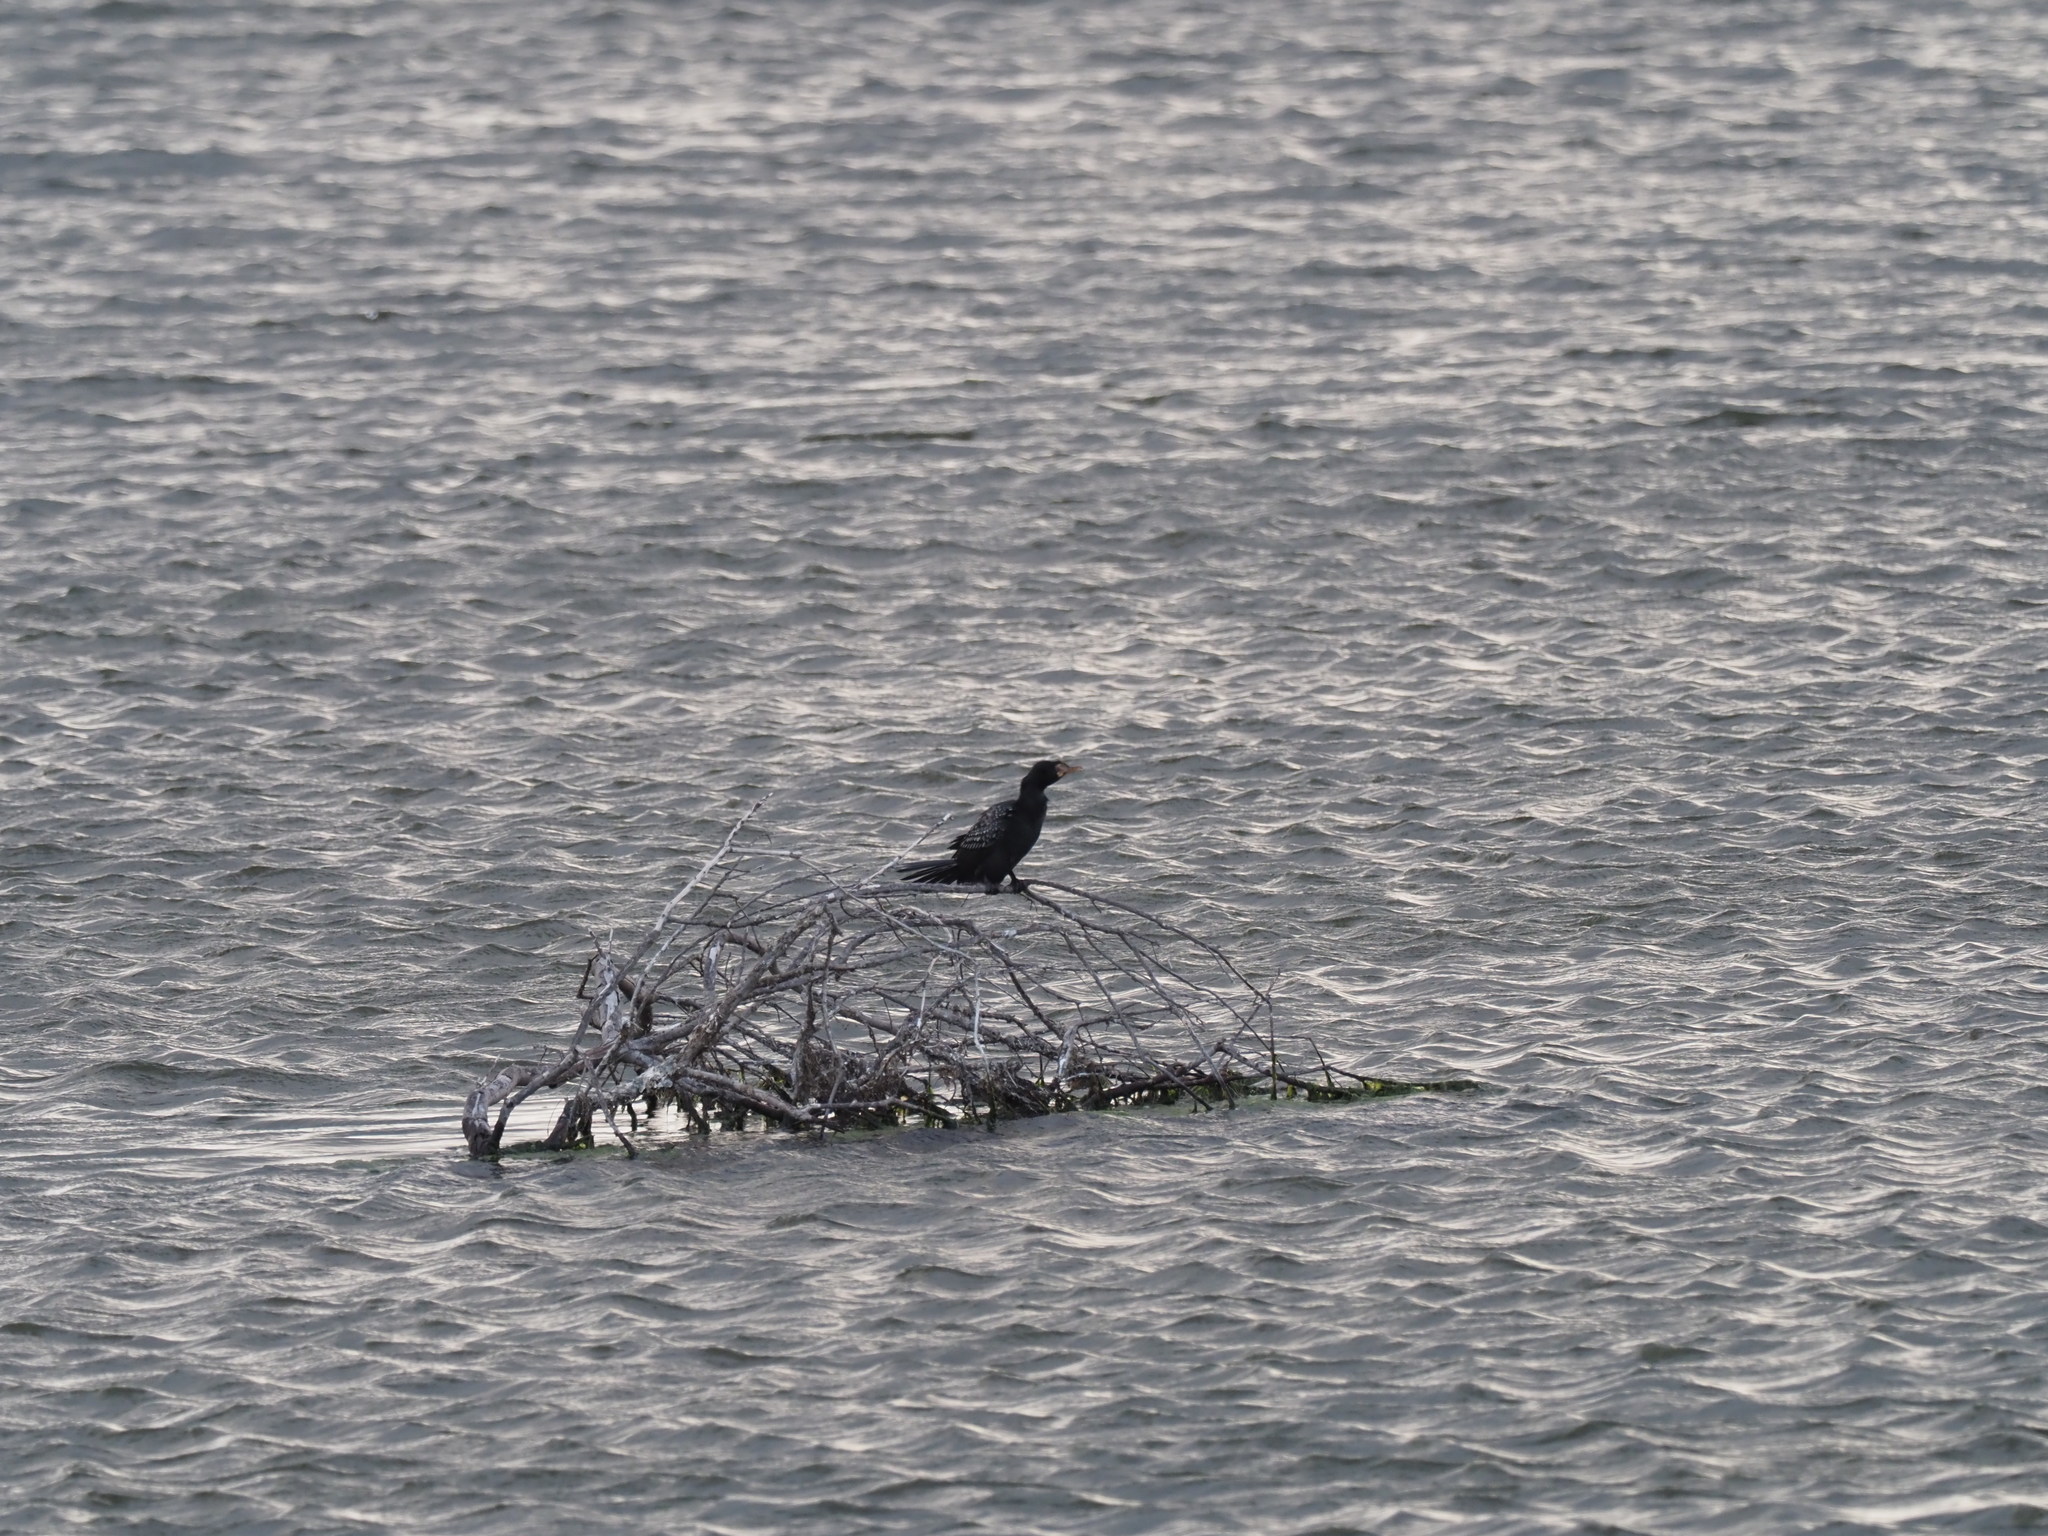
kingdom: Animalia
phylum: Chordata
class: Aves
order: Suliformes
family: Phalacrocoracidae
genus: Microcarbo
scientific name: Microcarbo africanus
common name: Long-tailed cormorant
